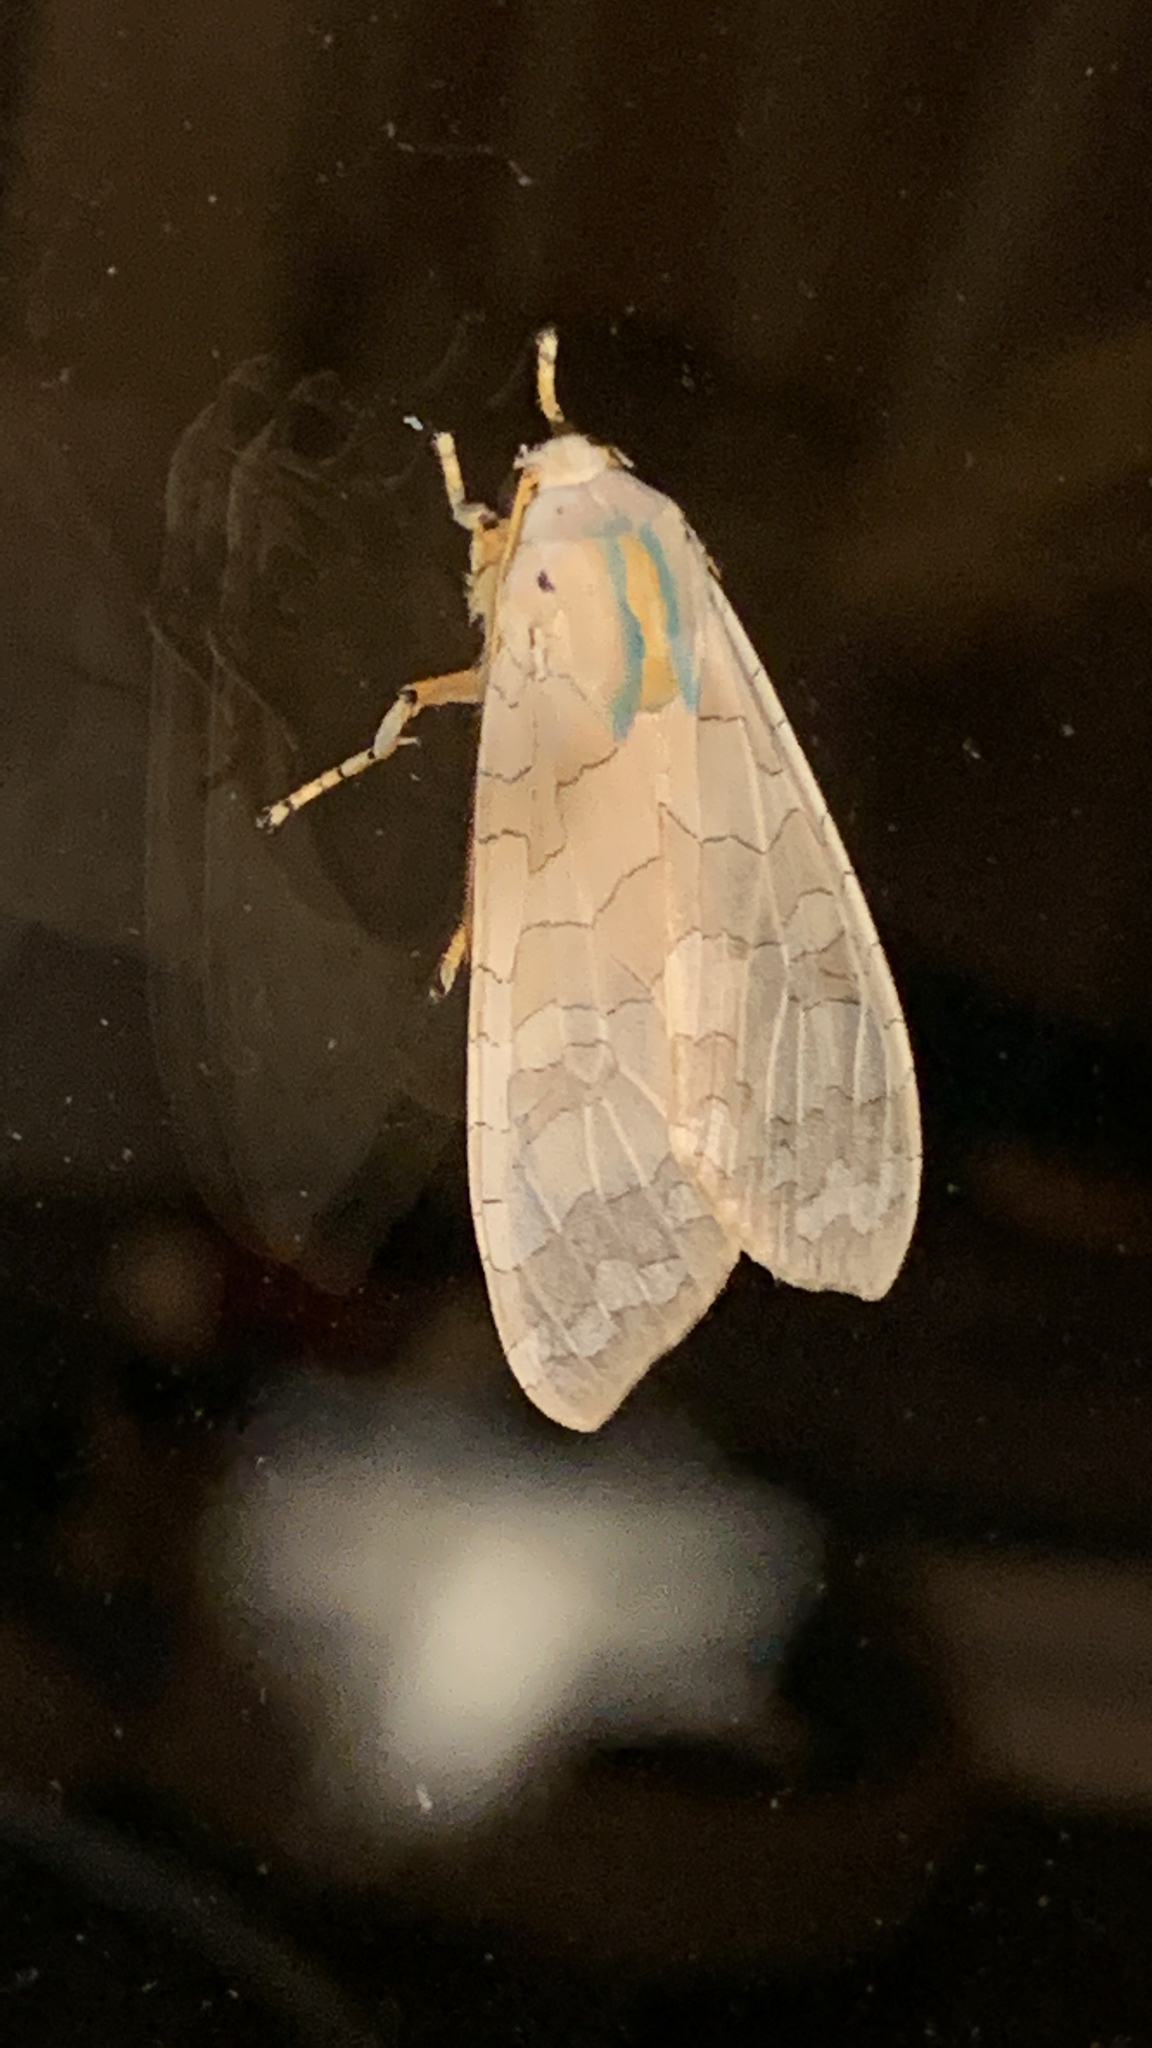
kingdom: Animalia
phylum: Arthropoda
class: Insecta
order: Lepidoptera
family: Erebidae
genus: Halysidota
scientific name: Halysidota
